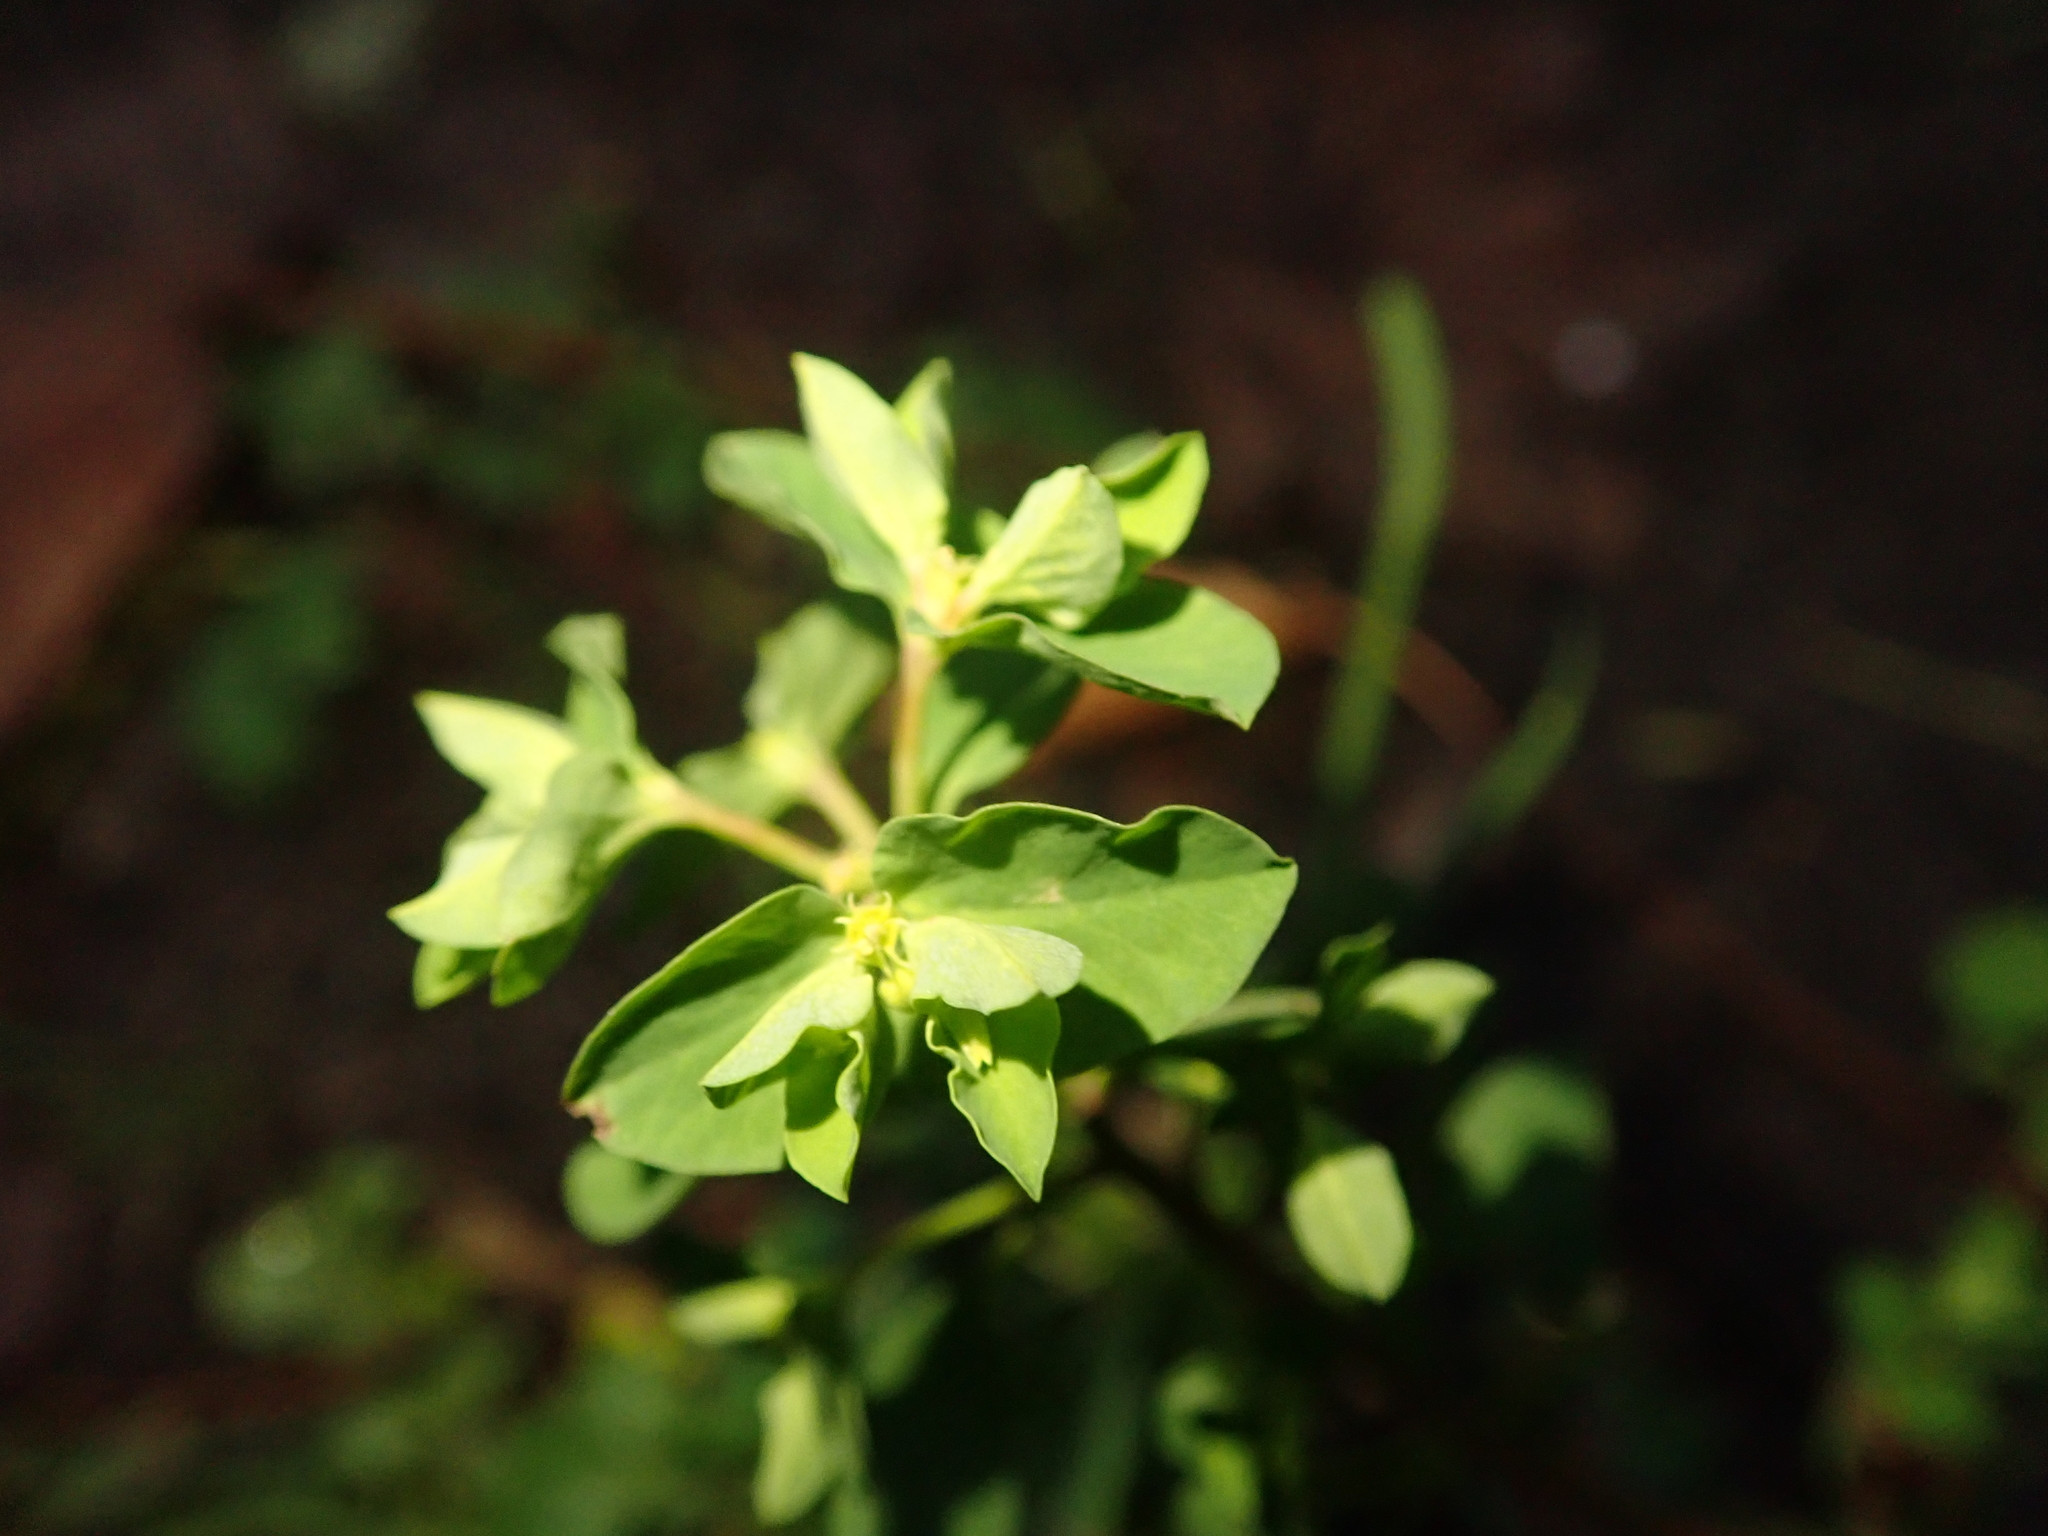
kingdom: Plantae
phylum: Tracheophyta
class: Magnoliopsida
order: Malpighiales
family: Euphorbiaceae
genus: Euphorbia
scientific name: Euphorbia peplus
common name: Petty spurge
